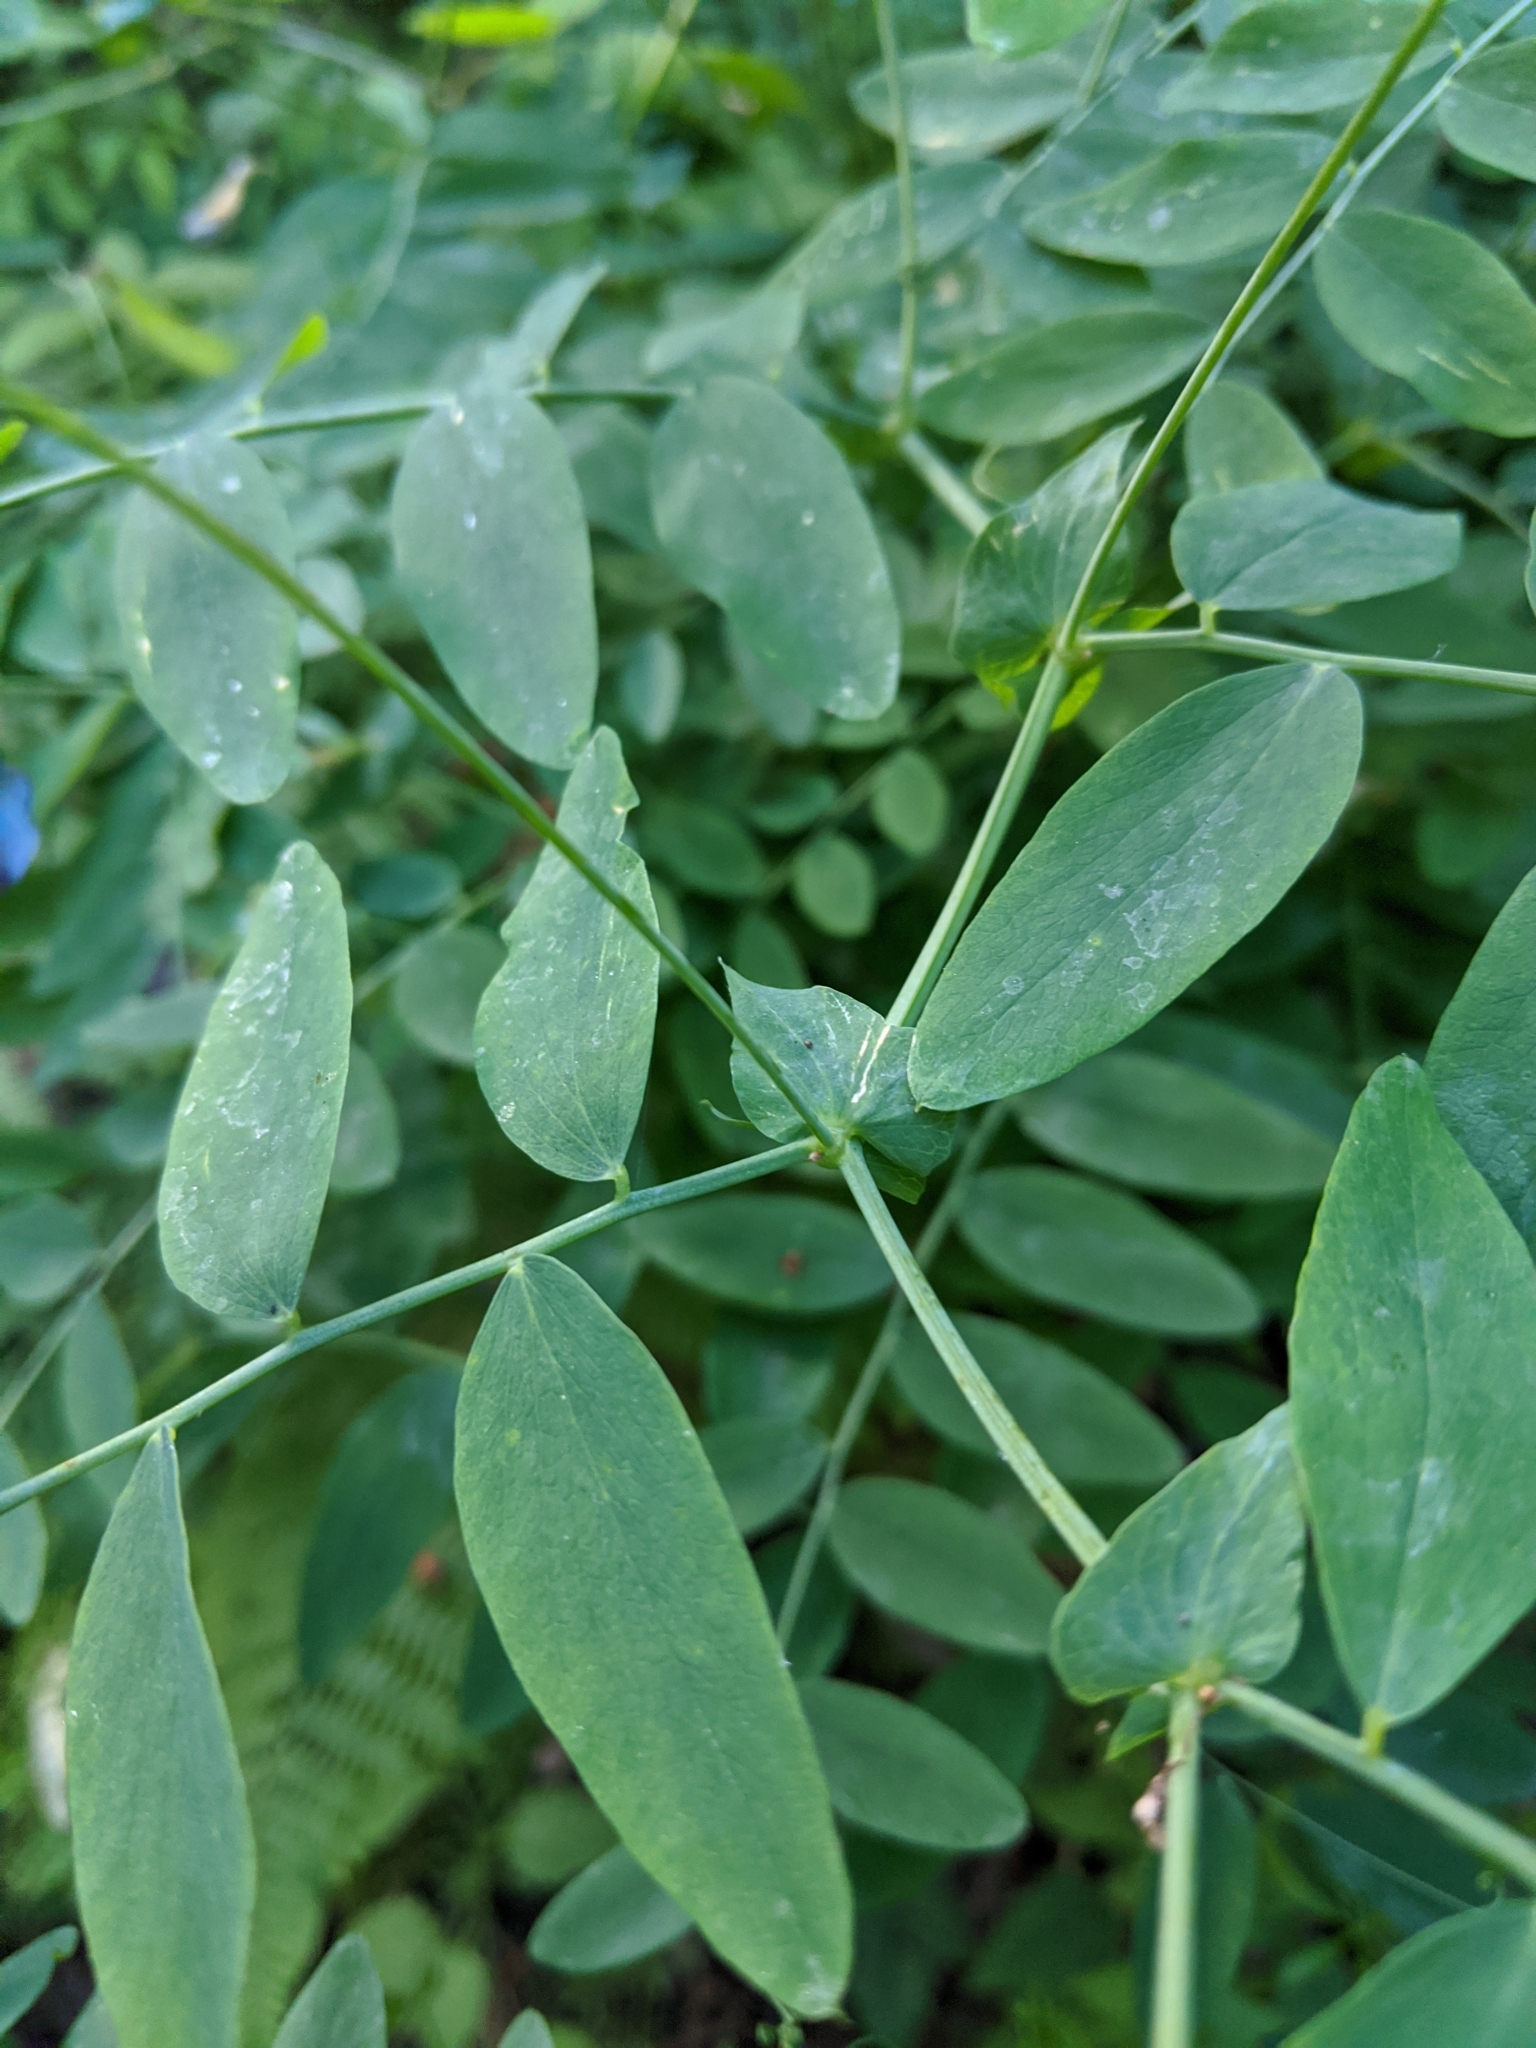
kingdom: Plantae
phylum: Tracheophyta
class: Magnoliopsida
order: Fabales
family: Fabaceae
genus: Lathyrus
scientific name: Lathyrus polyphyllus
